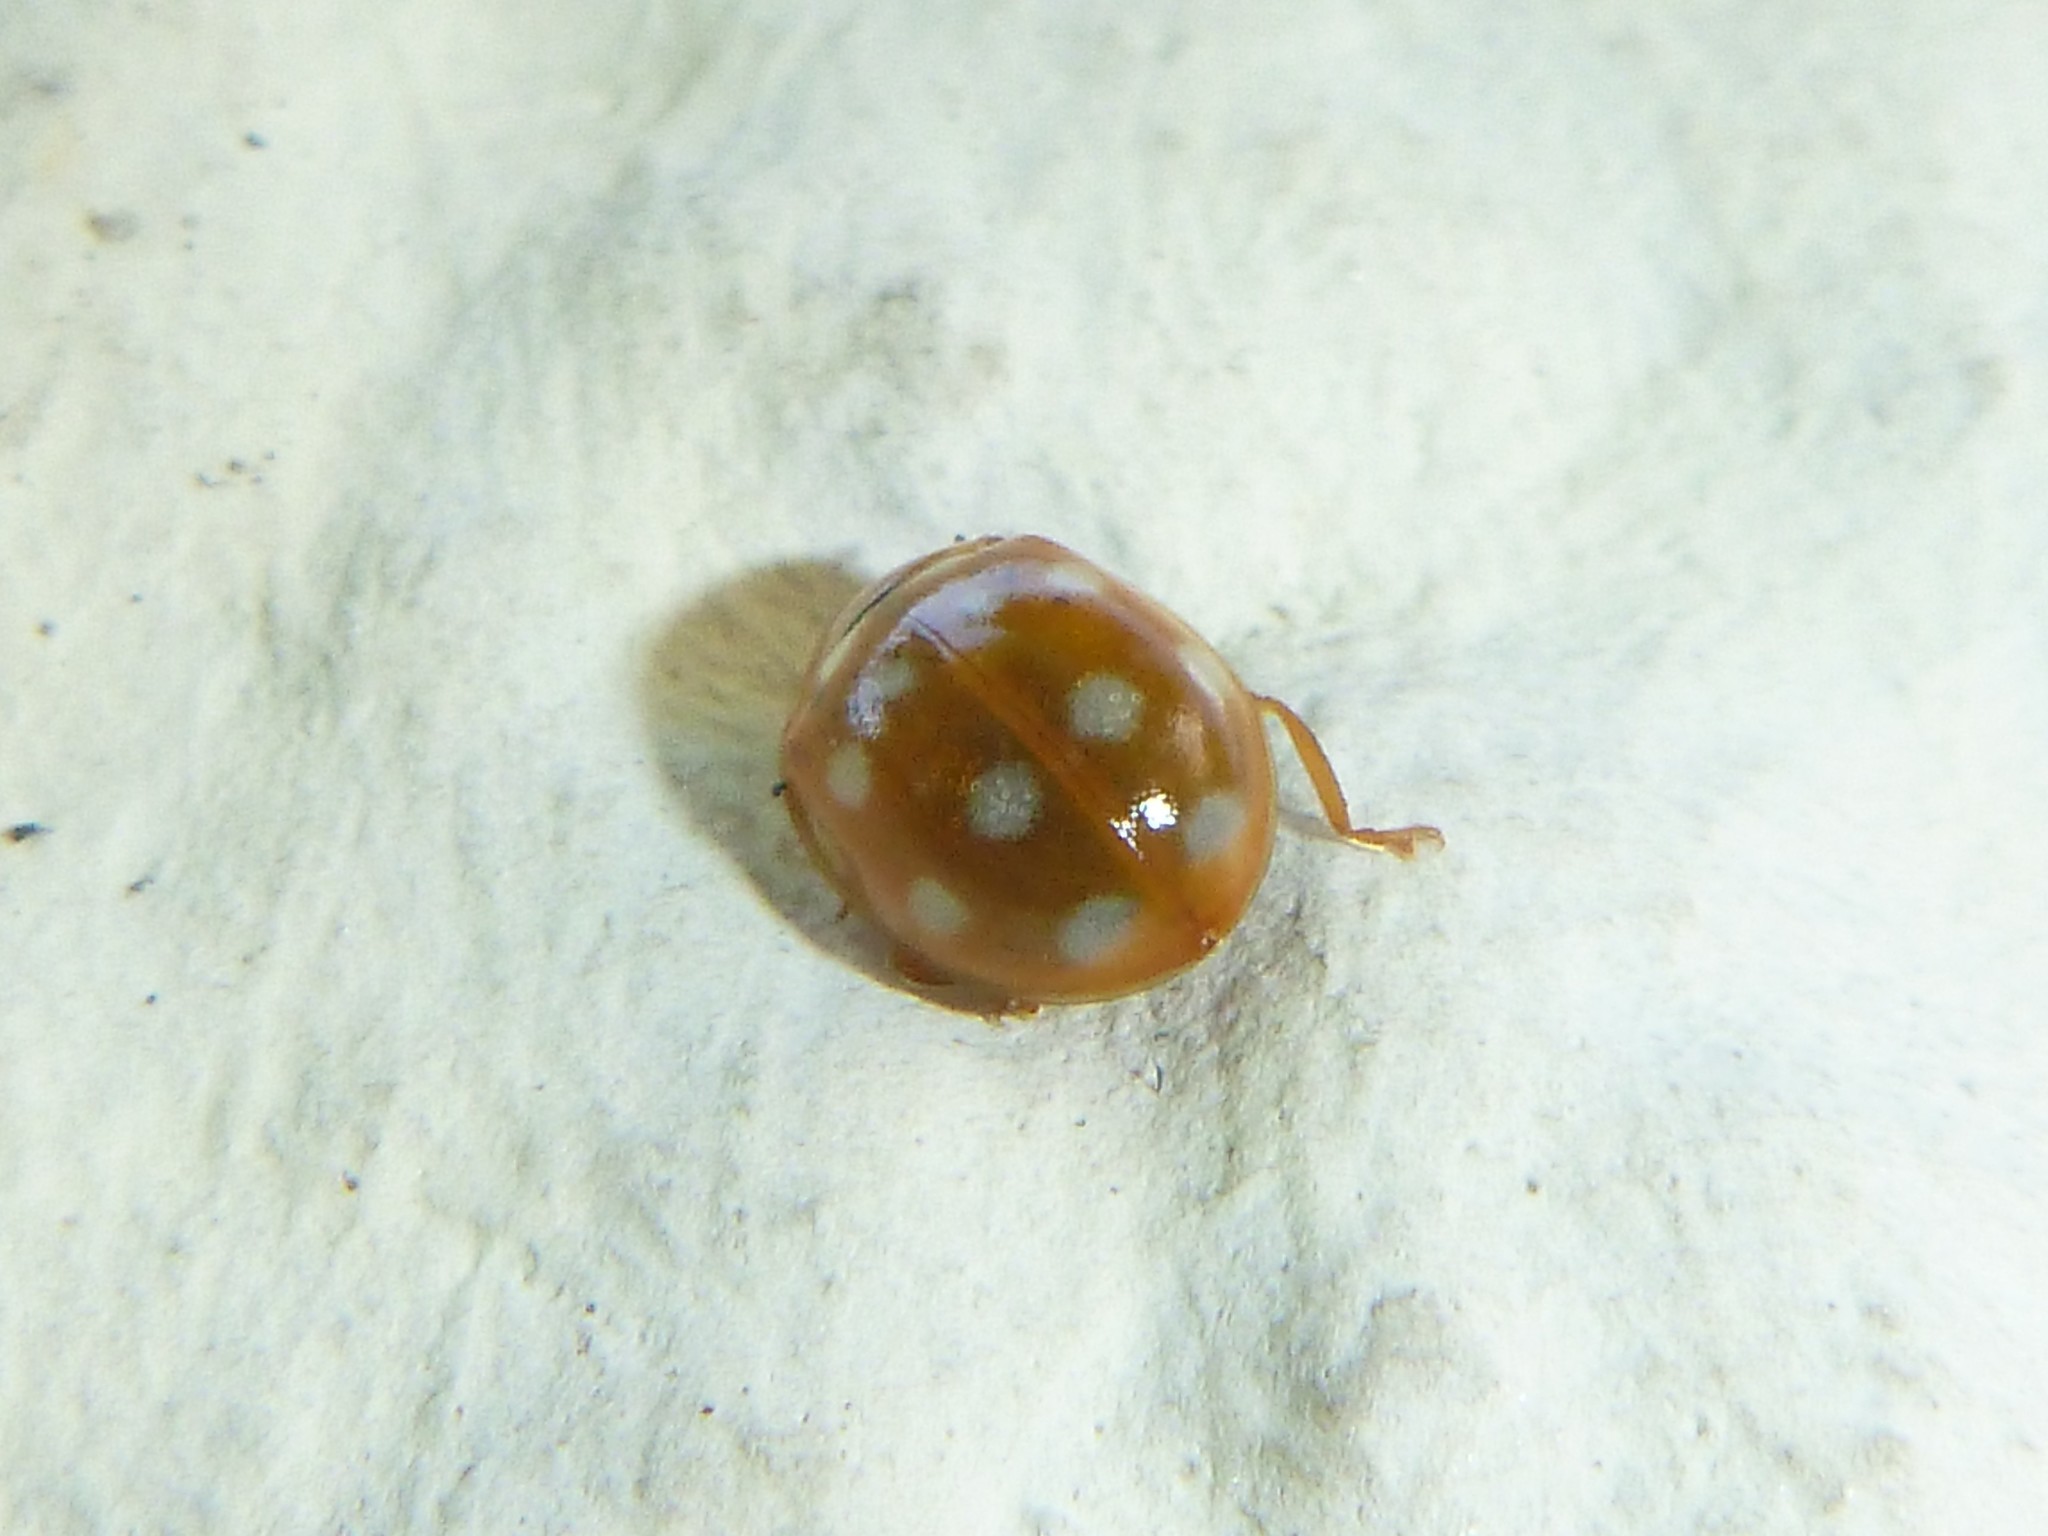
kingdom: Animalia
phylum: Arthropoda
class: Insecta
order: Coleoptera
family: Coccinellidae
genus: Calvia
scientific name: Calvia quatuordecimguttata
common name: Cream-spot ladybird
